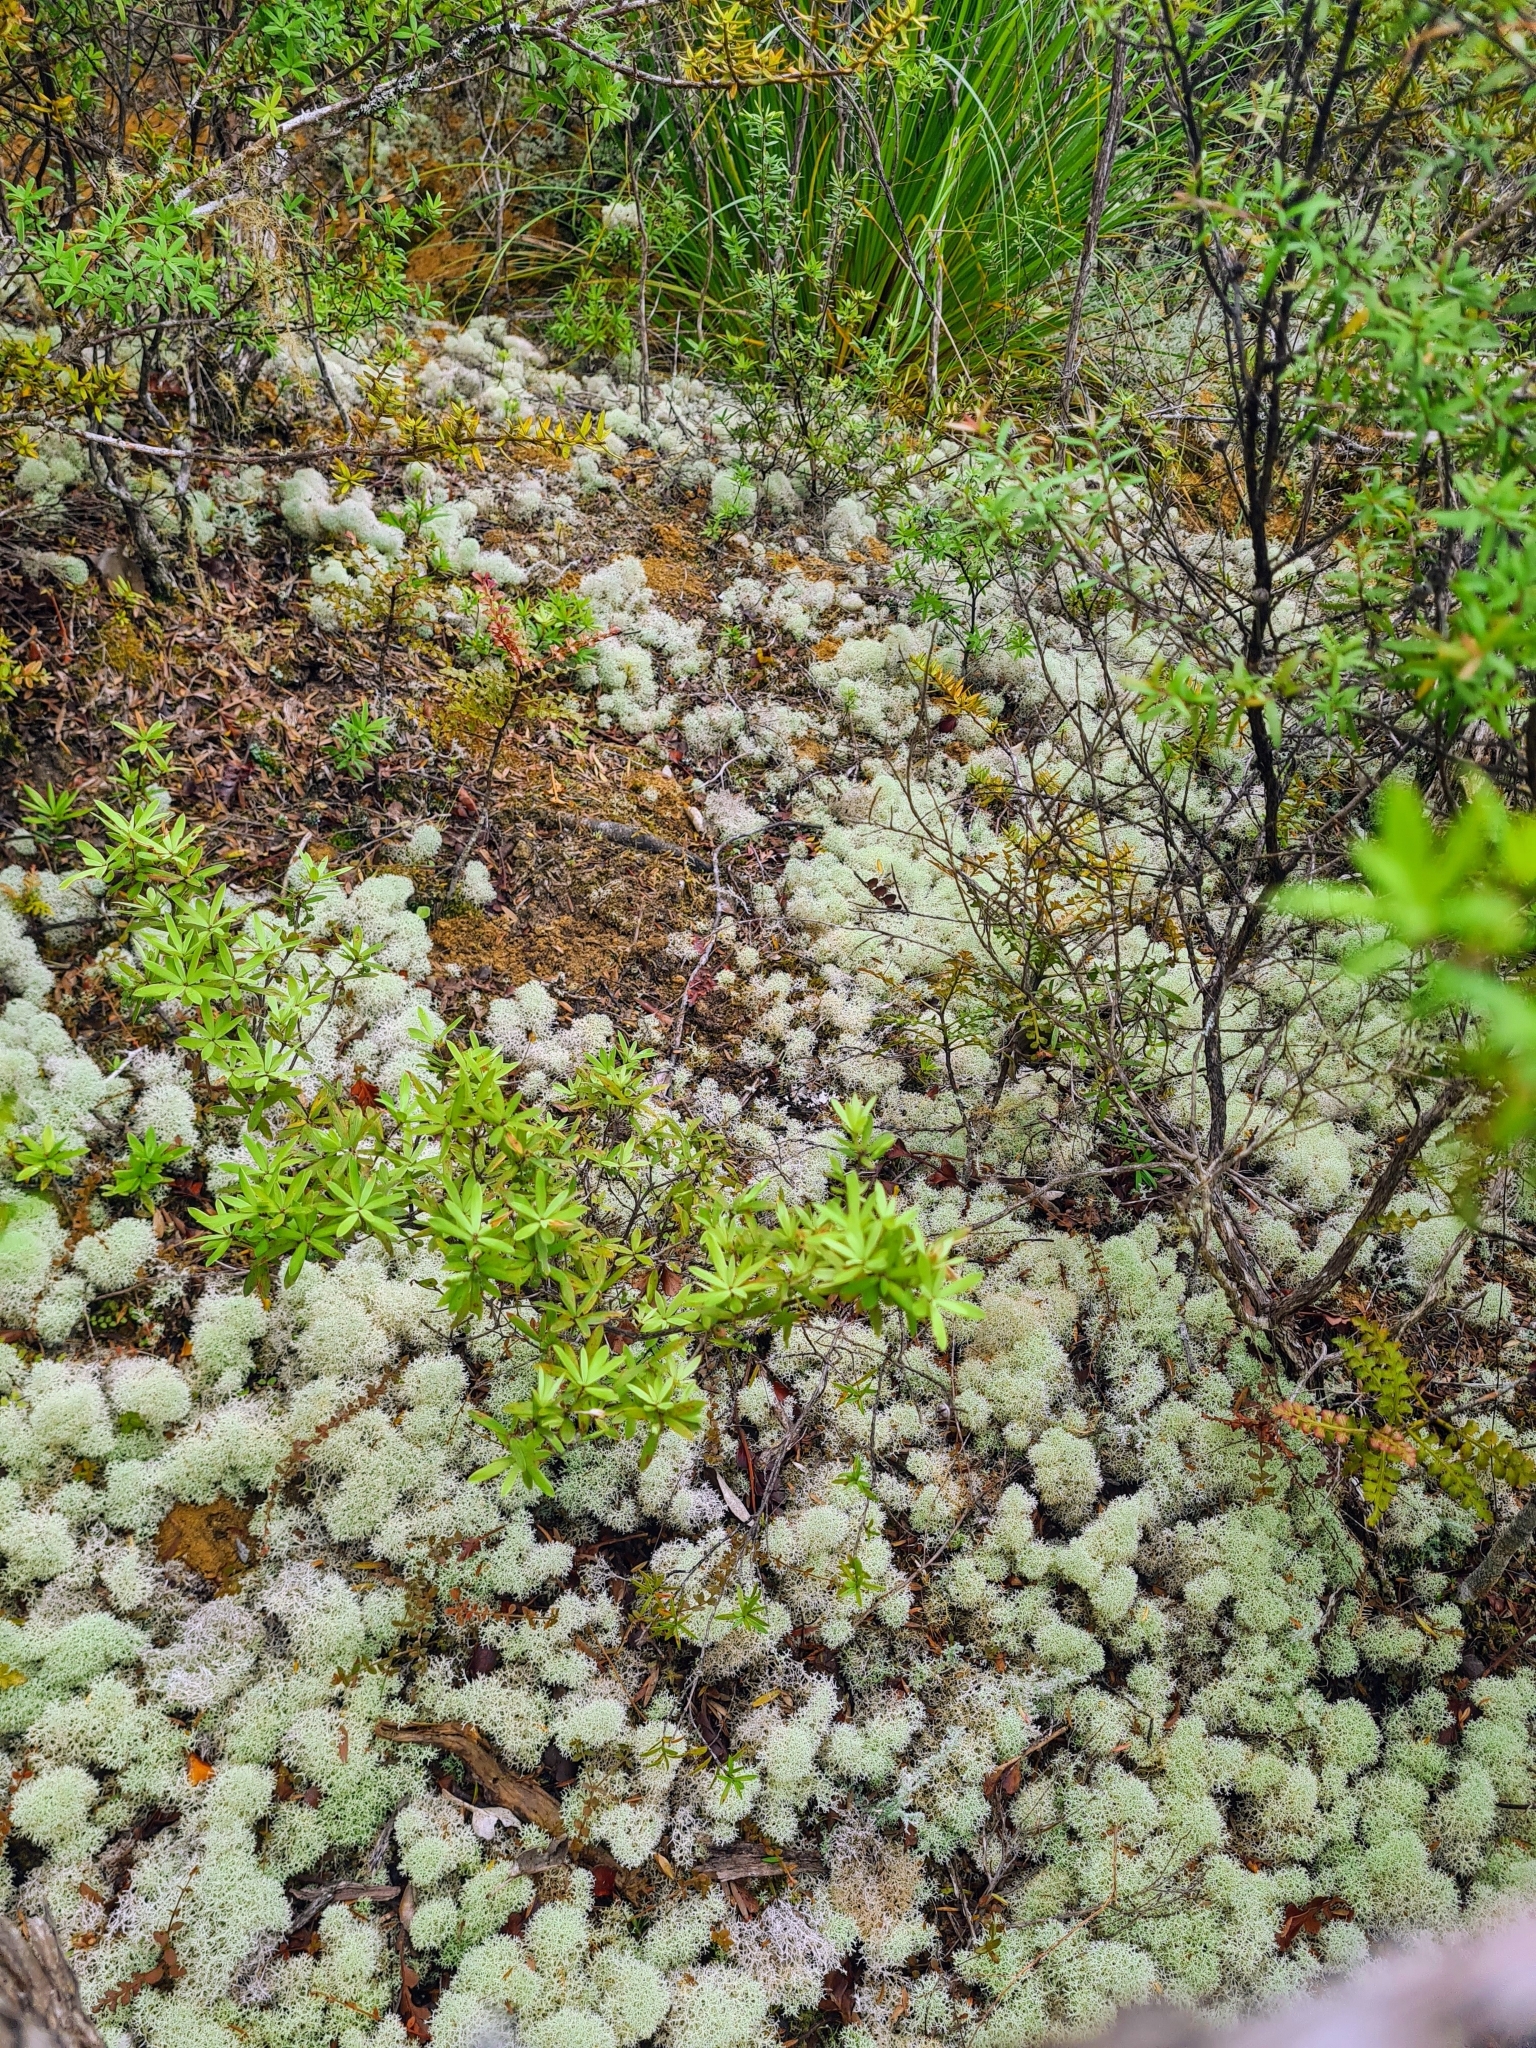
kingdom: Fungi
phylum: Ascomycota
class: Lecanoromycetes
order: Lecanorales
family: Cladoniaceae
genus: Cladonia
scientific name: Cladonia confusa
